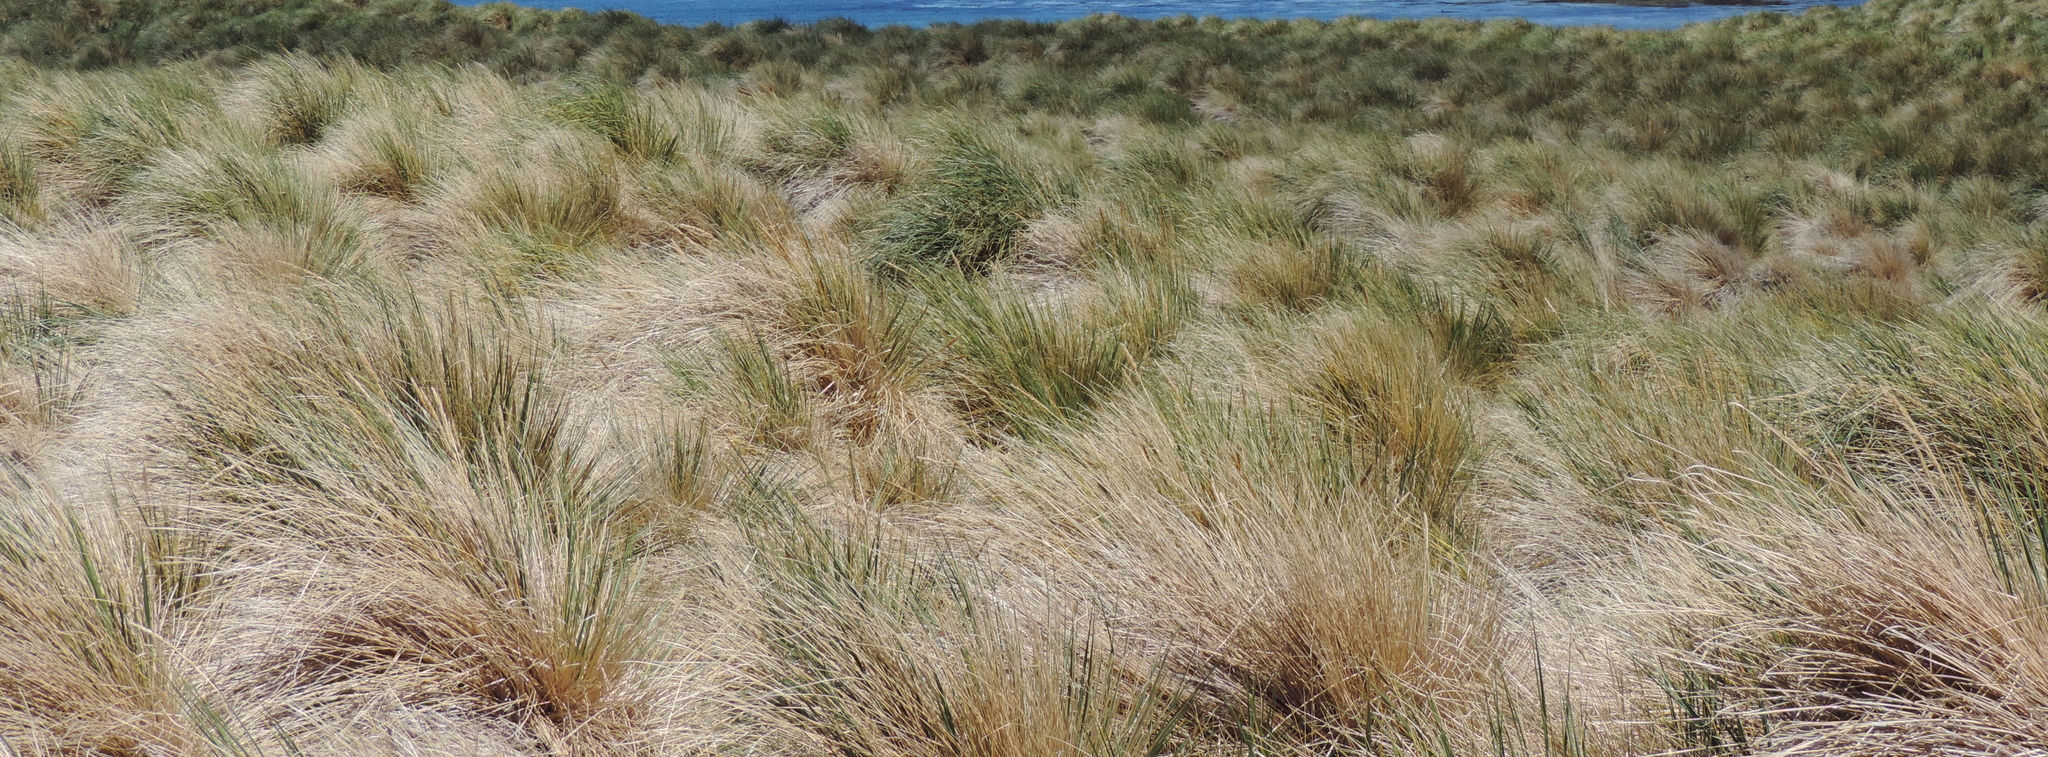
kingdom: Plantae
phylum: Tracheophyta
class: Liliopsida
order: Poales
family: Poaceae
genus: Poa
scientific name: Poa flabellata
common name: Tussac-grass
